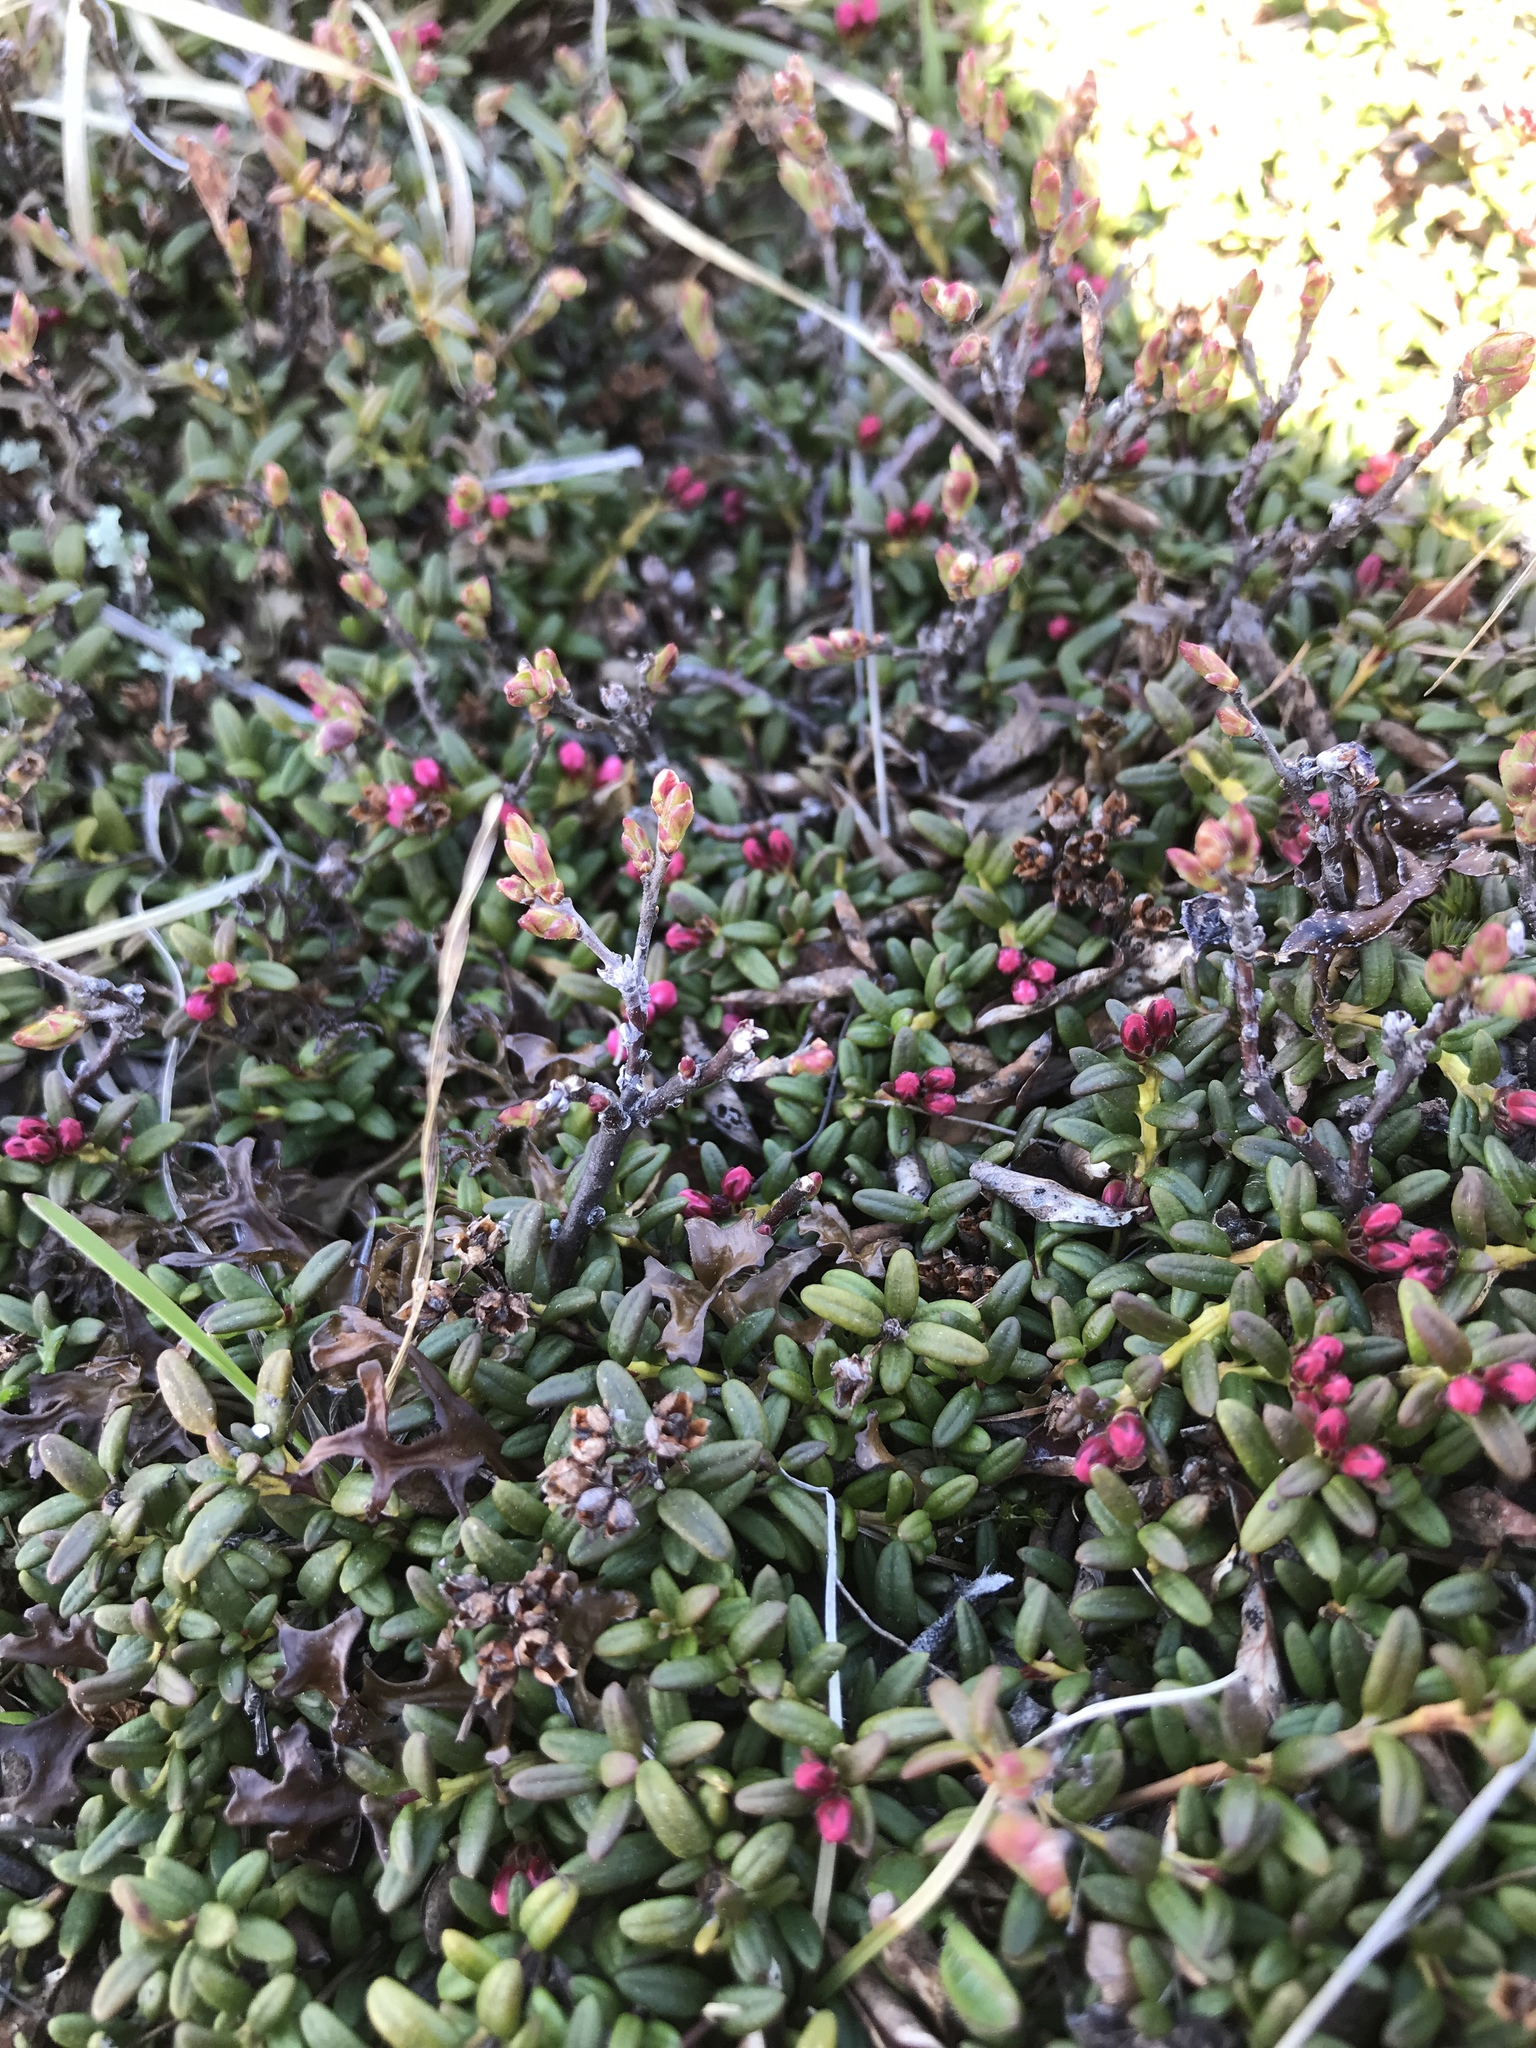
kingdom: Plantae
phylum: Tracheophyta
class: Magnoliopsida
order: Ericales
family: Ericaceae
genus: Kalmia
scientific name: Kalmia procumbens
